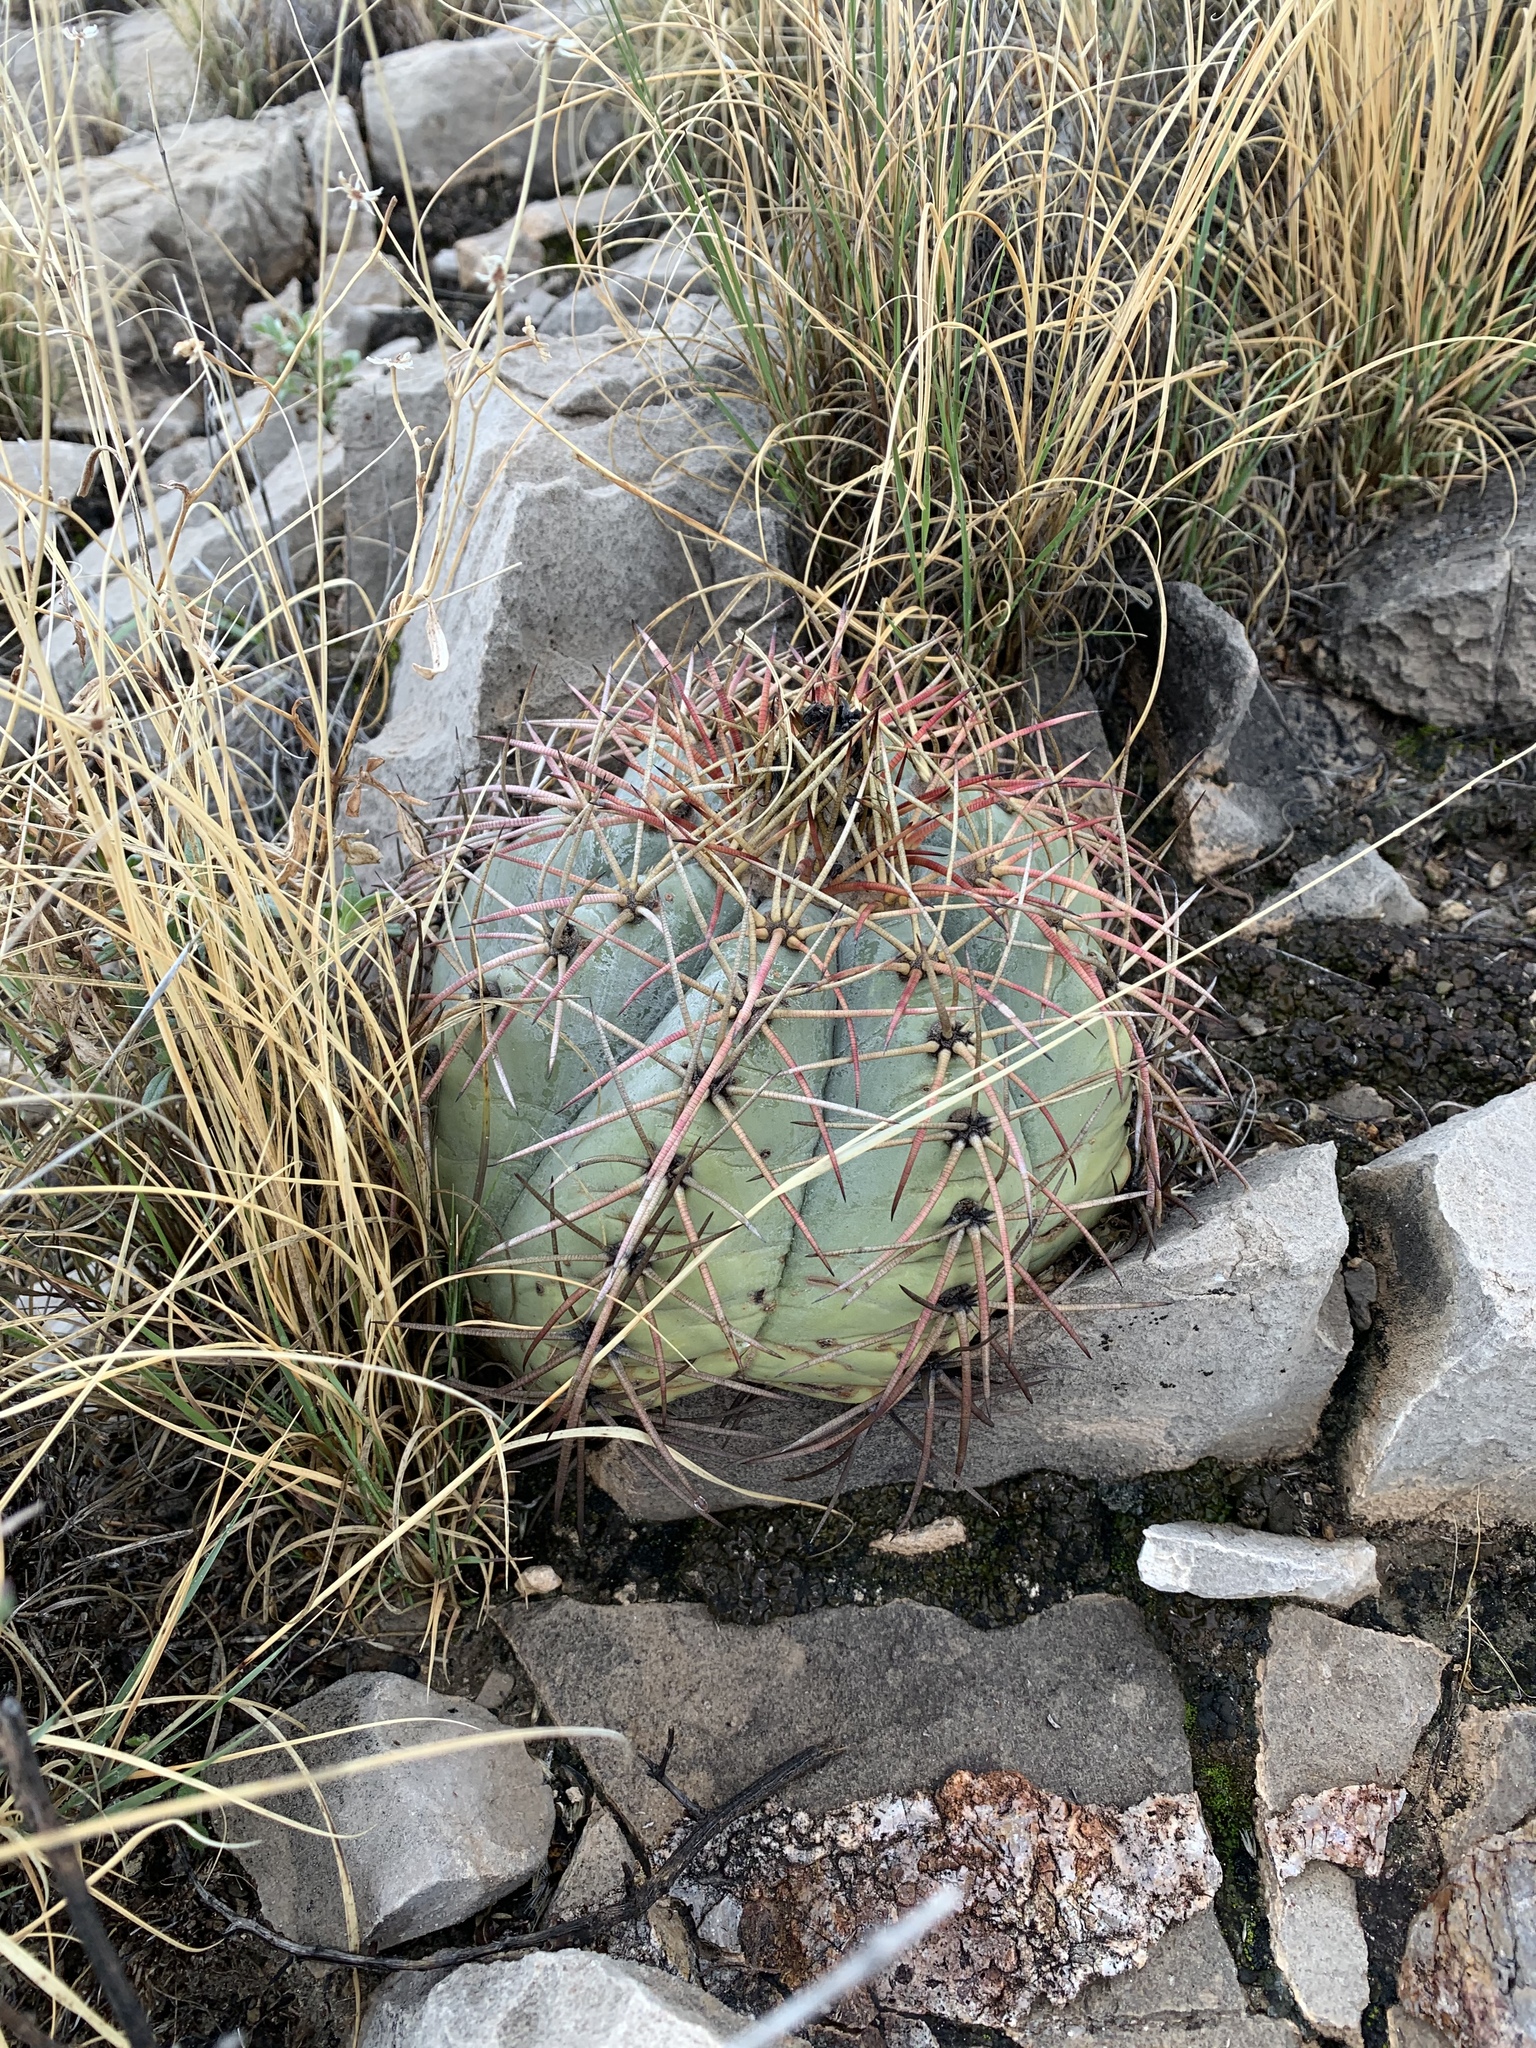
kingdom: Plantae
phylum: Tracheophyta
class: Magnoliopsida
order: Caryophyllales
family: Cactaceae
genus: Echinocactus
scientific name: Echinocactus horizonthalonius
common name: Devilshead
